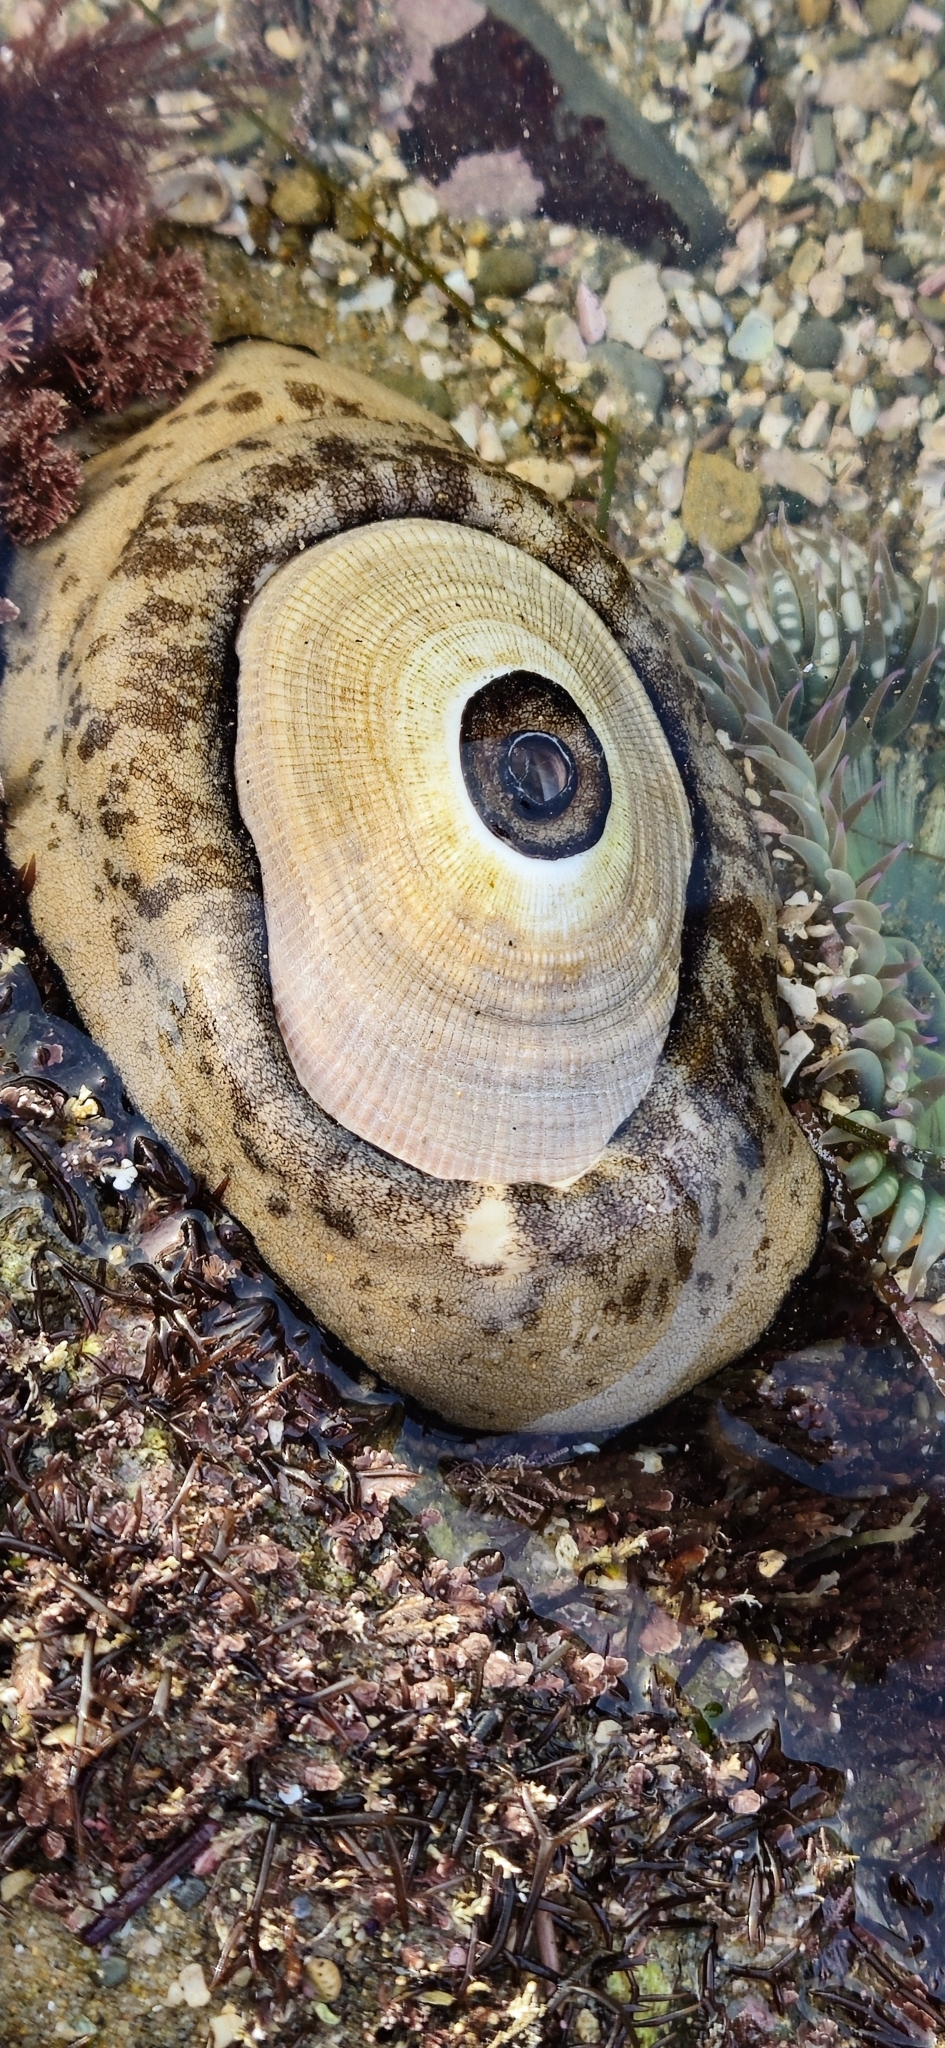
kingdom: Animalia
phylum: Mollusca
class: Gastropoda
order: Lepetellida
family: Fissurellidae
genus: Megathura
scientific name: Megathura crenulata
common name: Giant keyhole limpet
